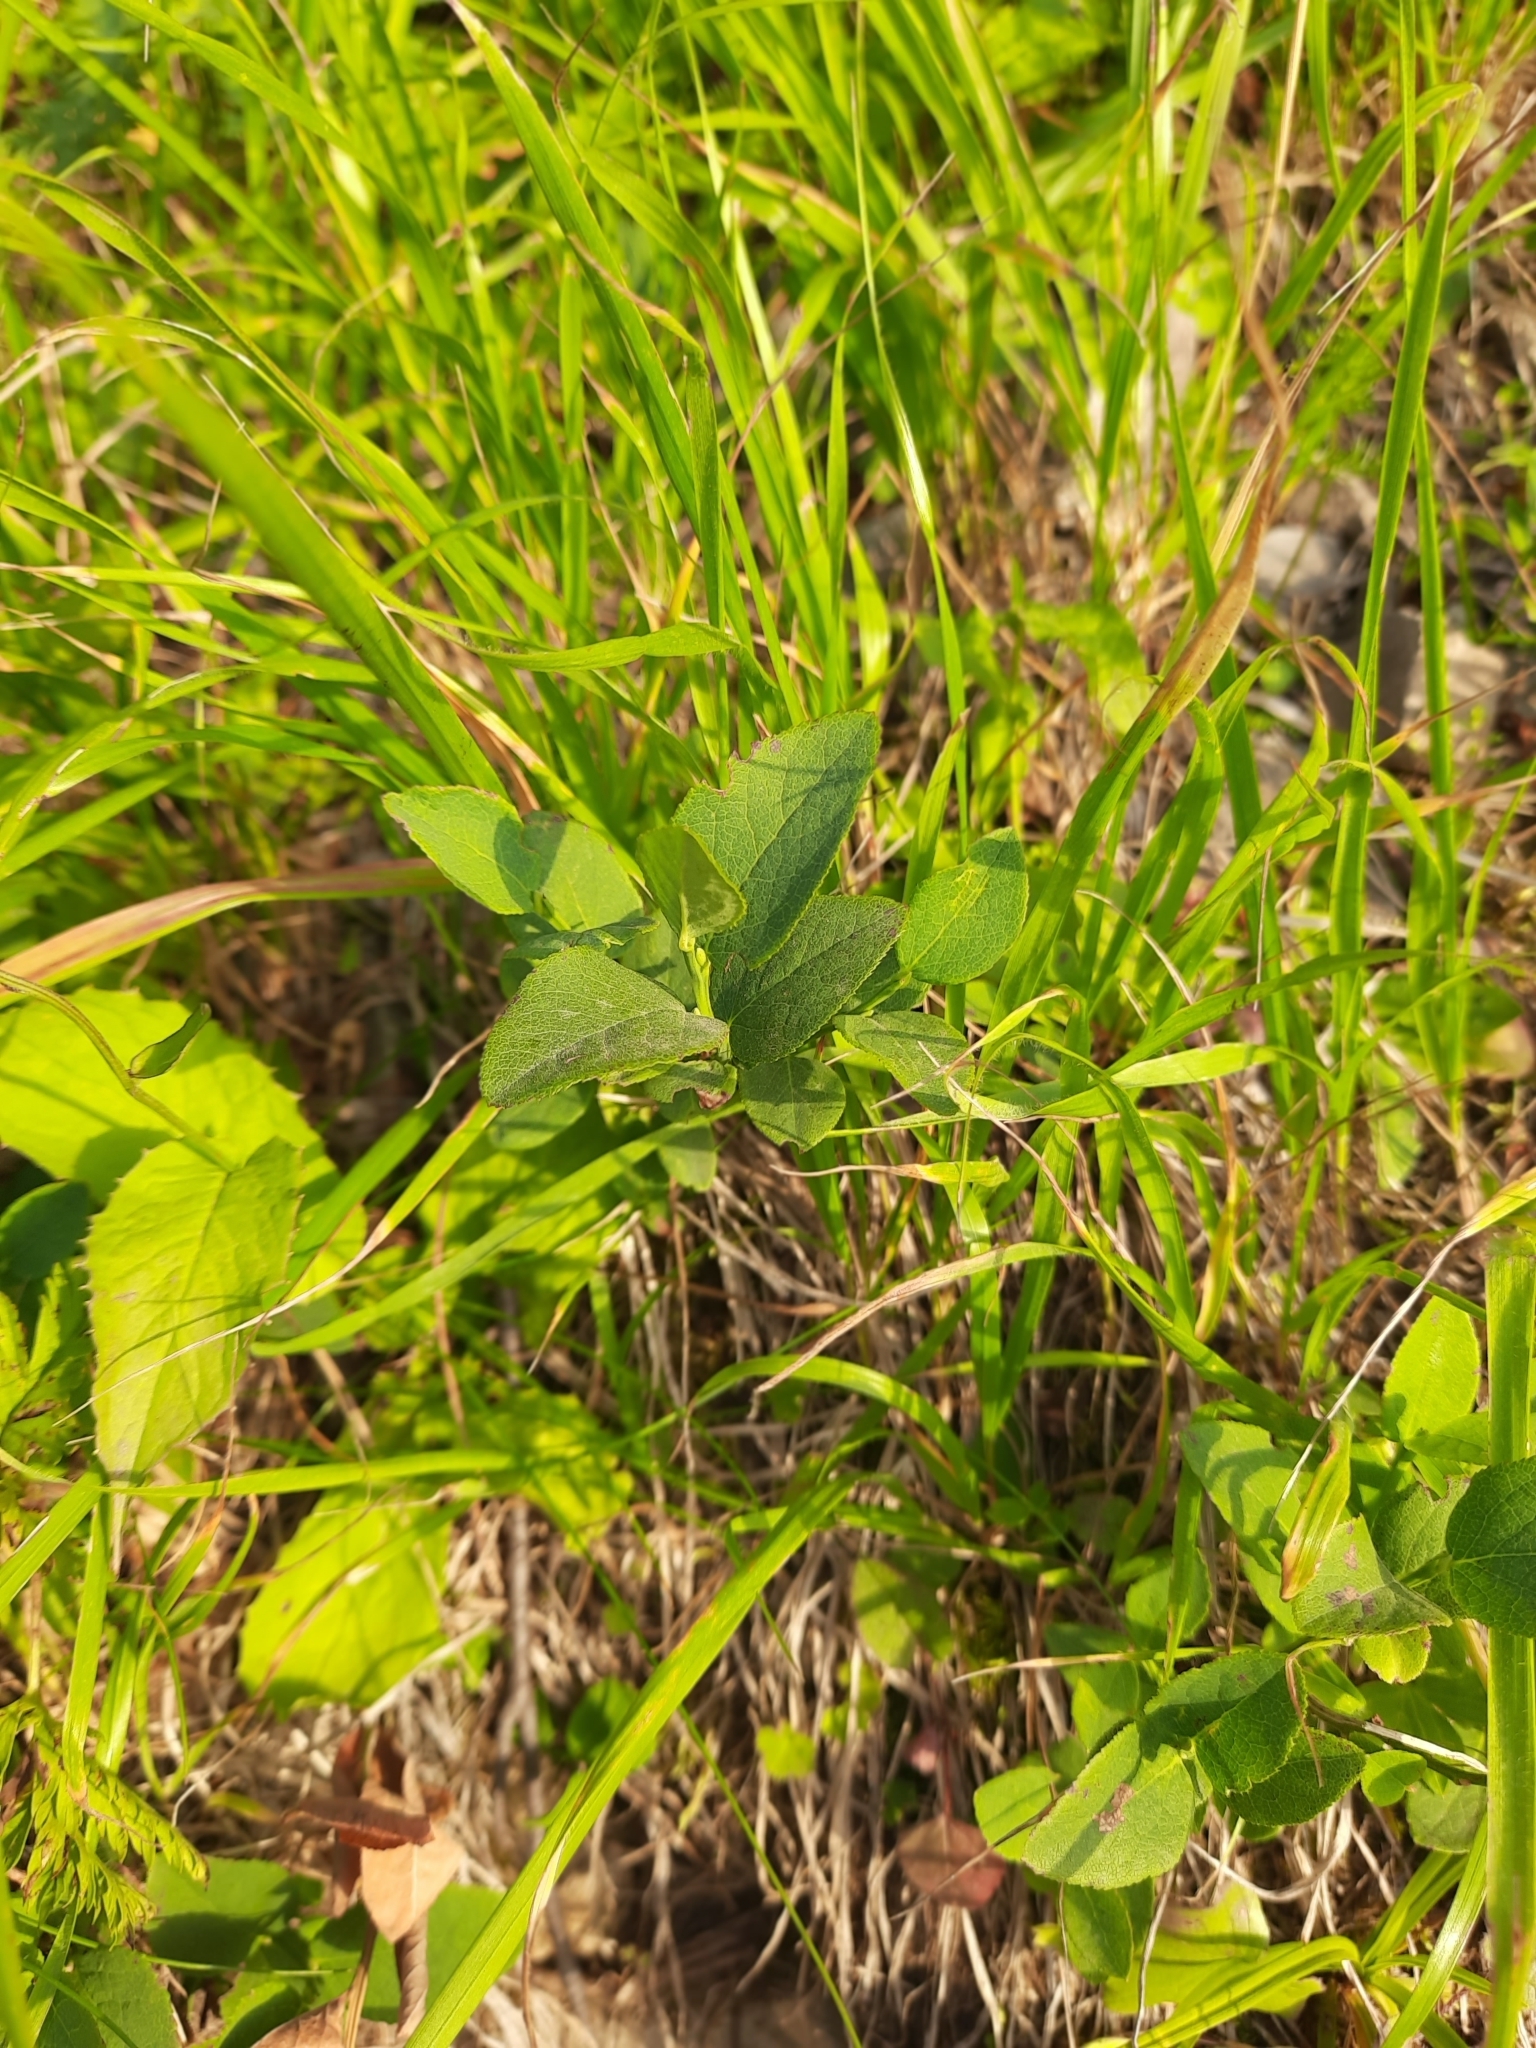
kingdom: Plantae
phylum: Tracheophyta
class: Magnoliopsida
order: Ericales
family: Ericaceae
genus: Vaccinium
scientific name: Vaccinium myrtillus
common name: Bilberry
